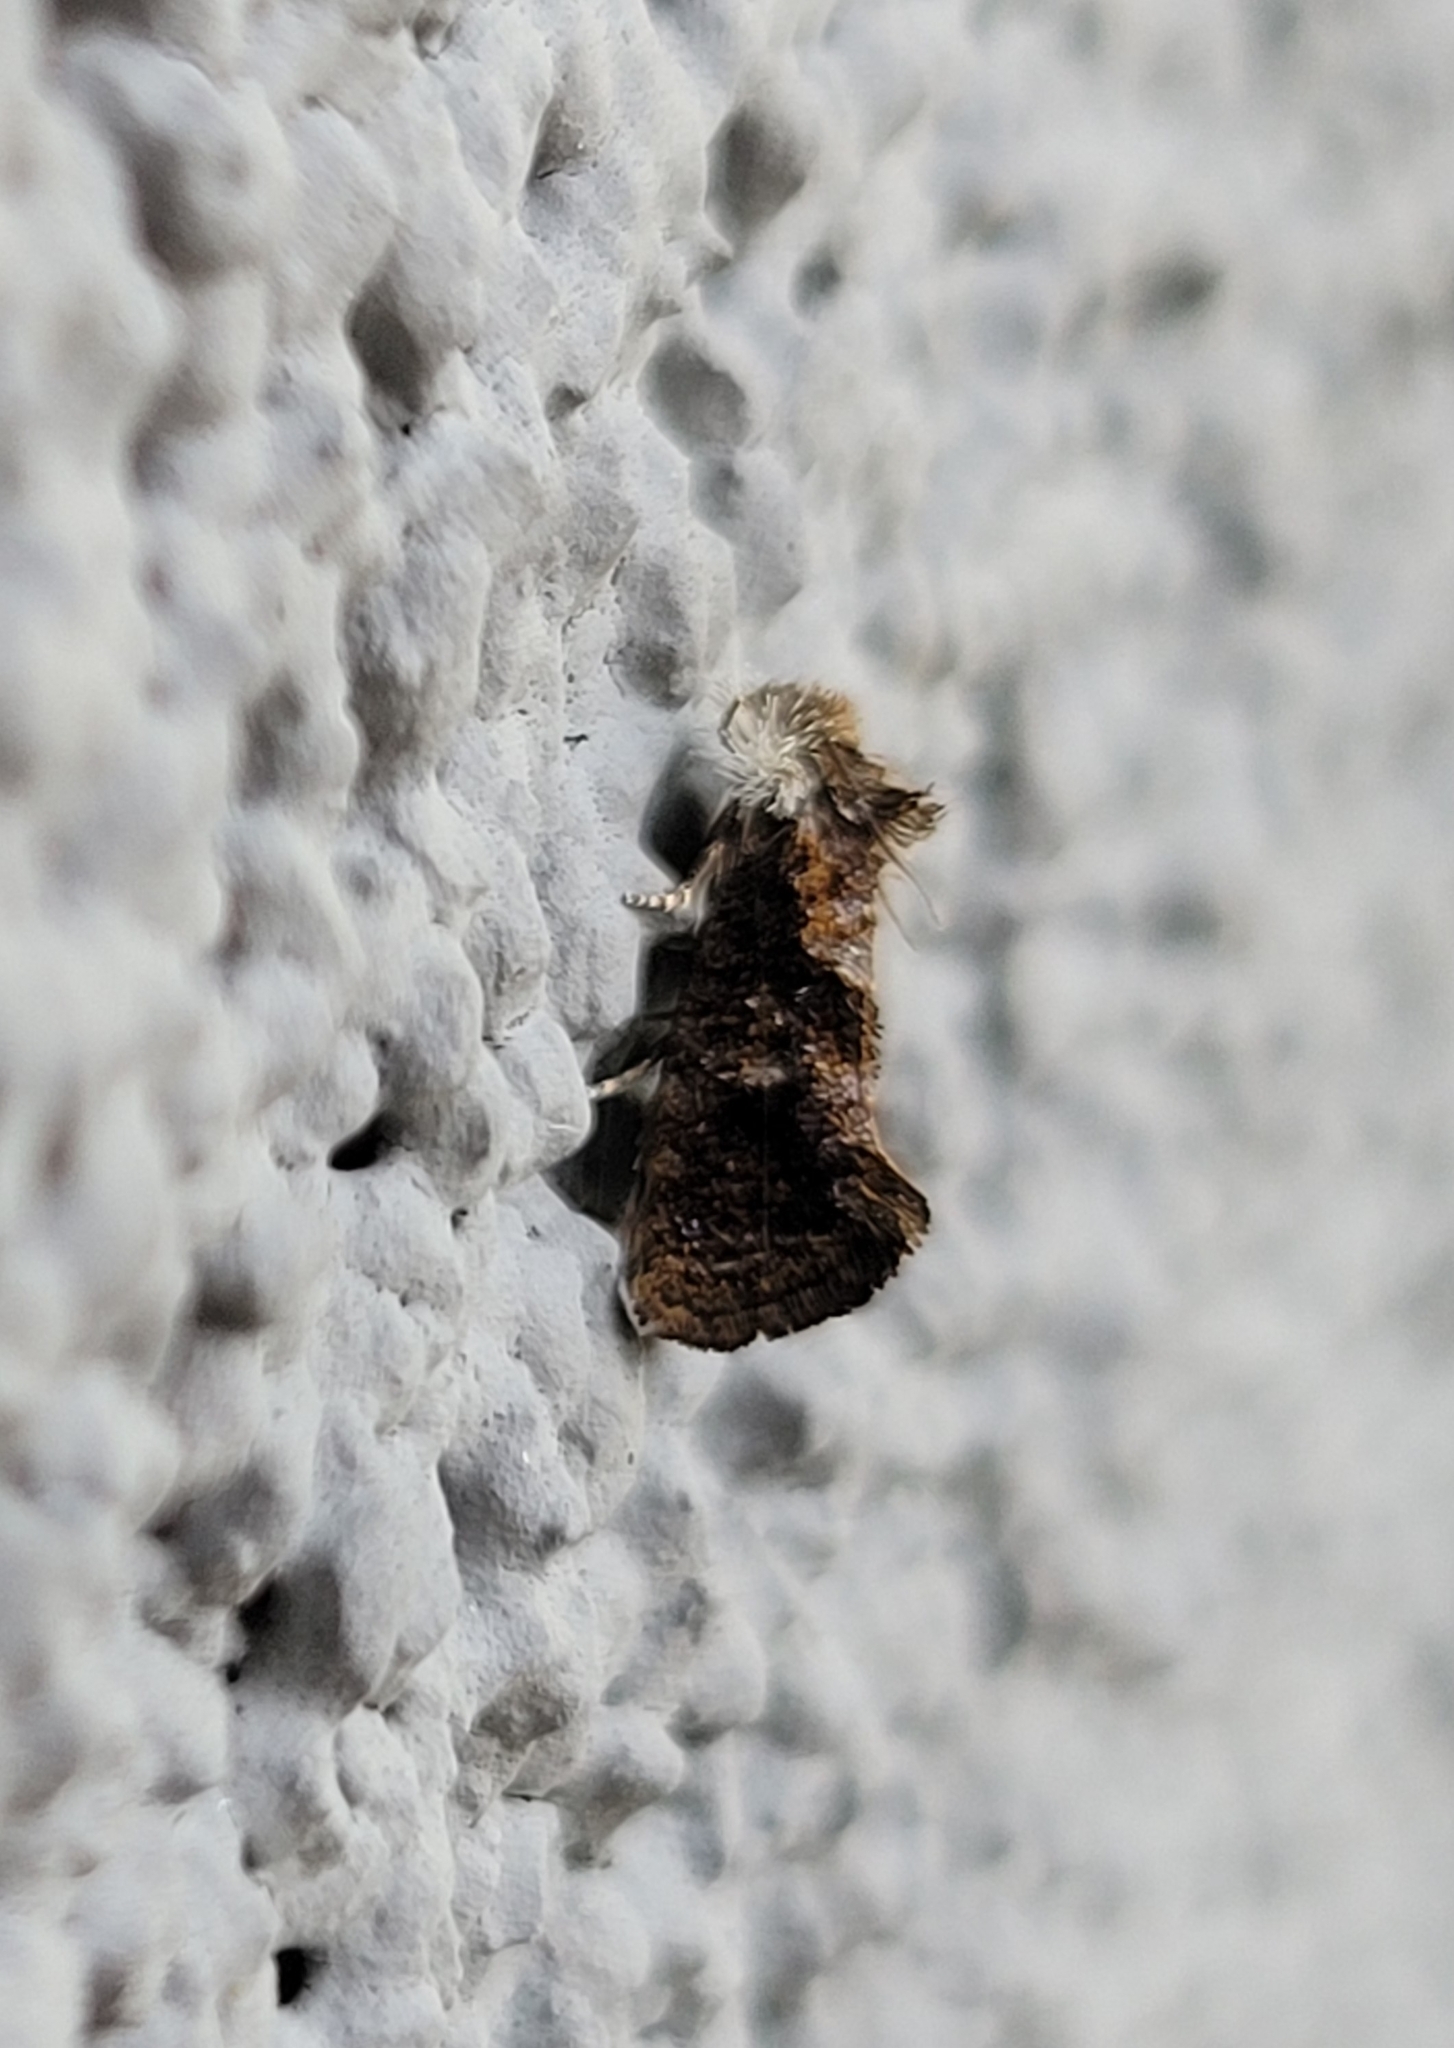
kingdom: Animalia
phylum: Arthropoda
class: Insecta
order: Lepidoptera
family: Tineidae
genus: Acrolophus
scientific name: Acrolophus panamae
